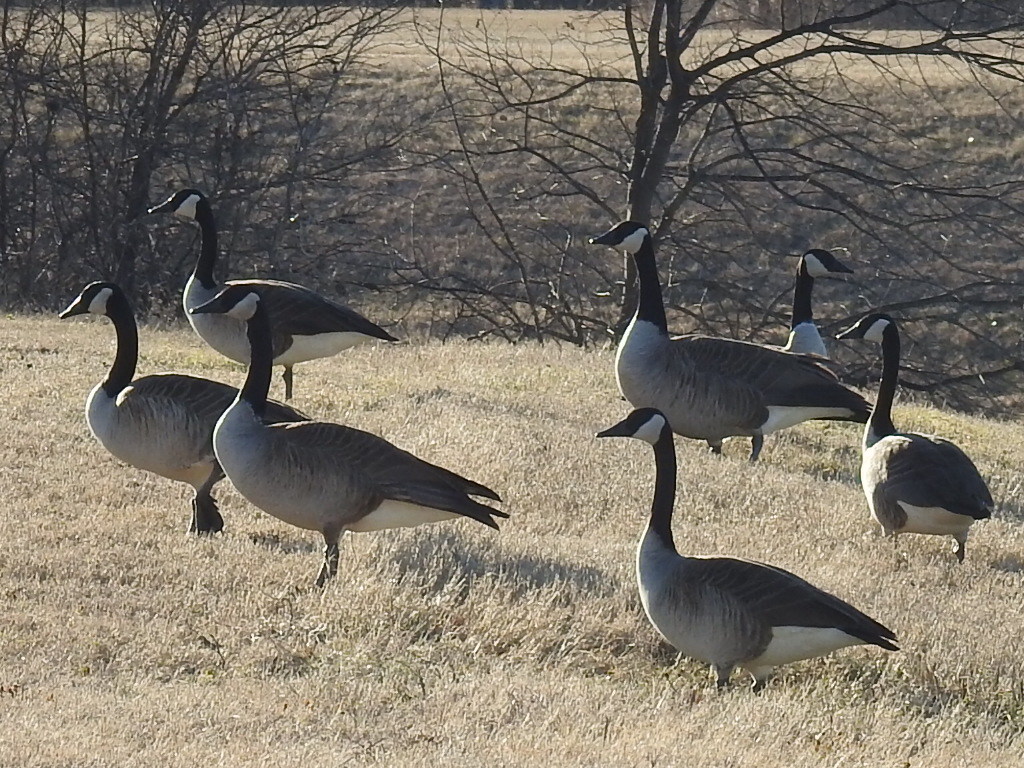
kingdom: Animalia
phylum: Chordata
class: Aves
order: Anseriformes
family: Anatidae
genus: Branta
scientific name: Branta canadensis
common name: Canada goose
